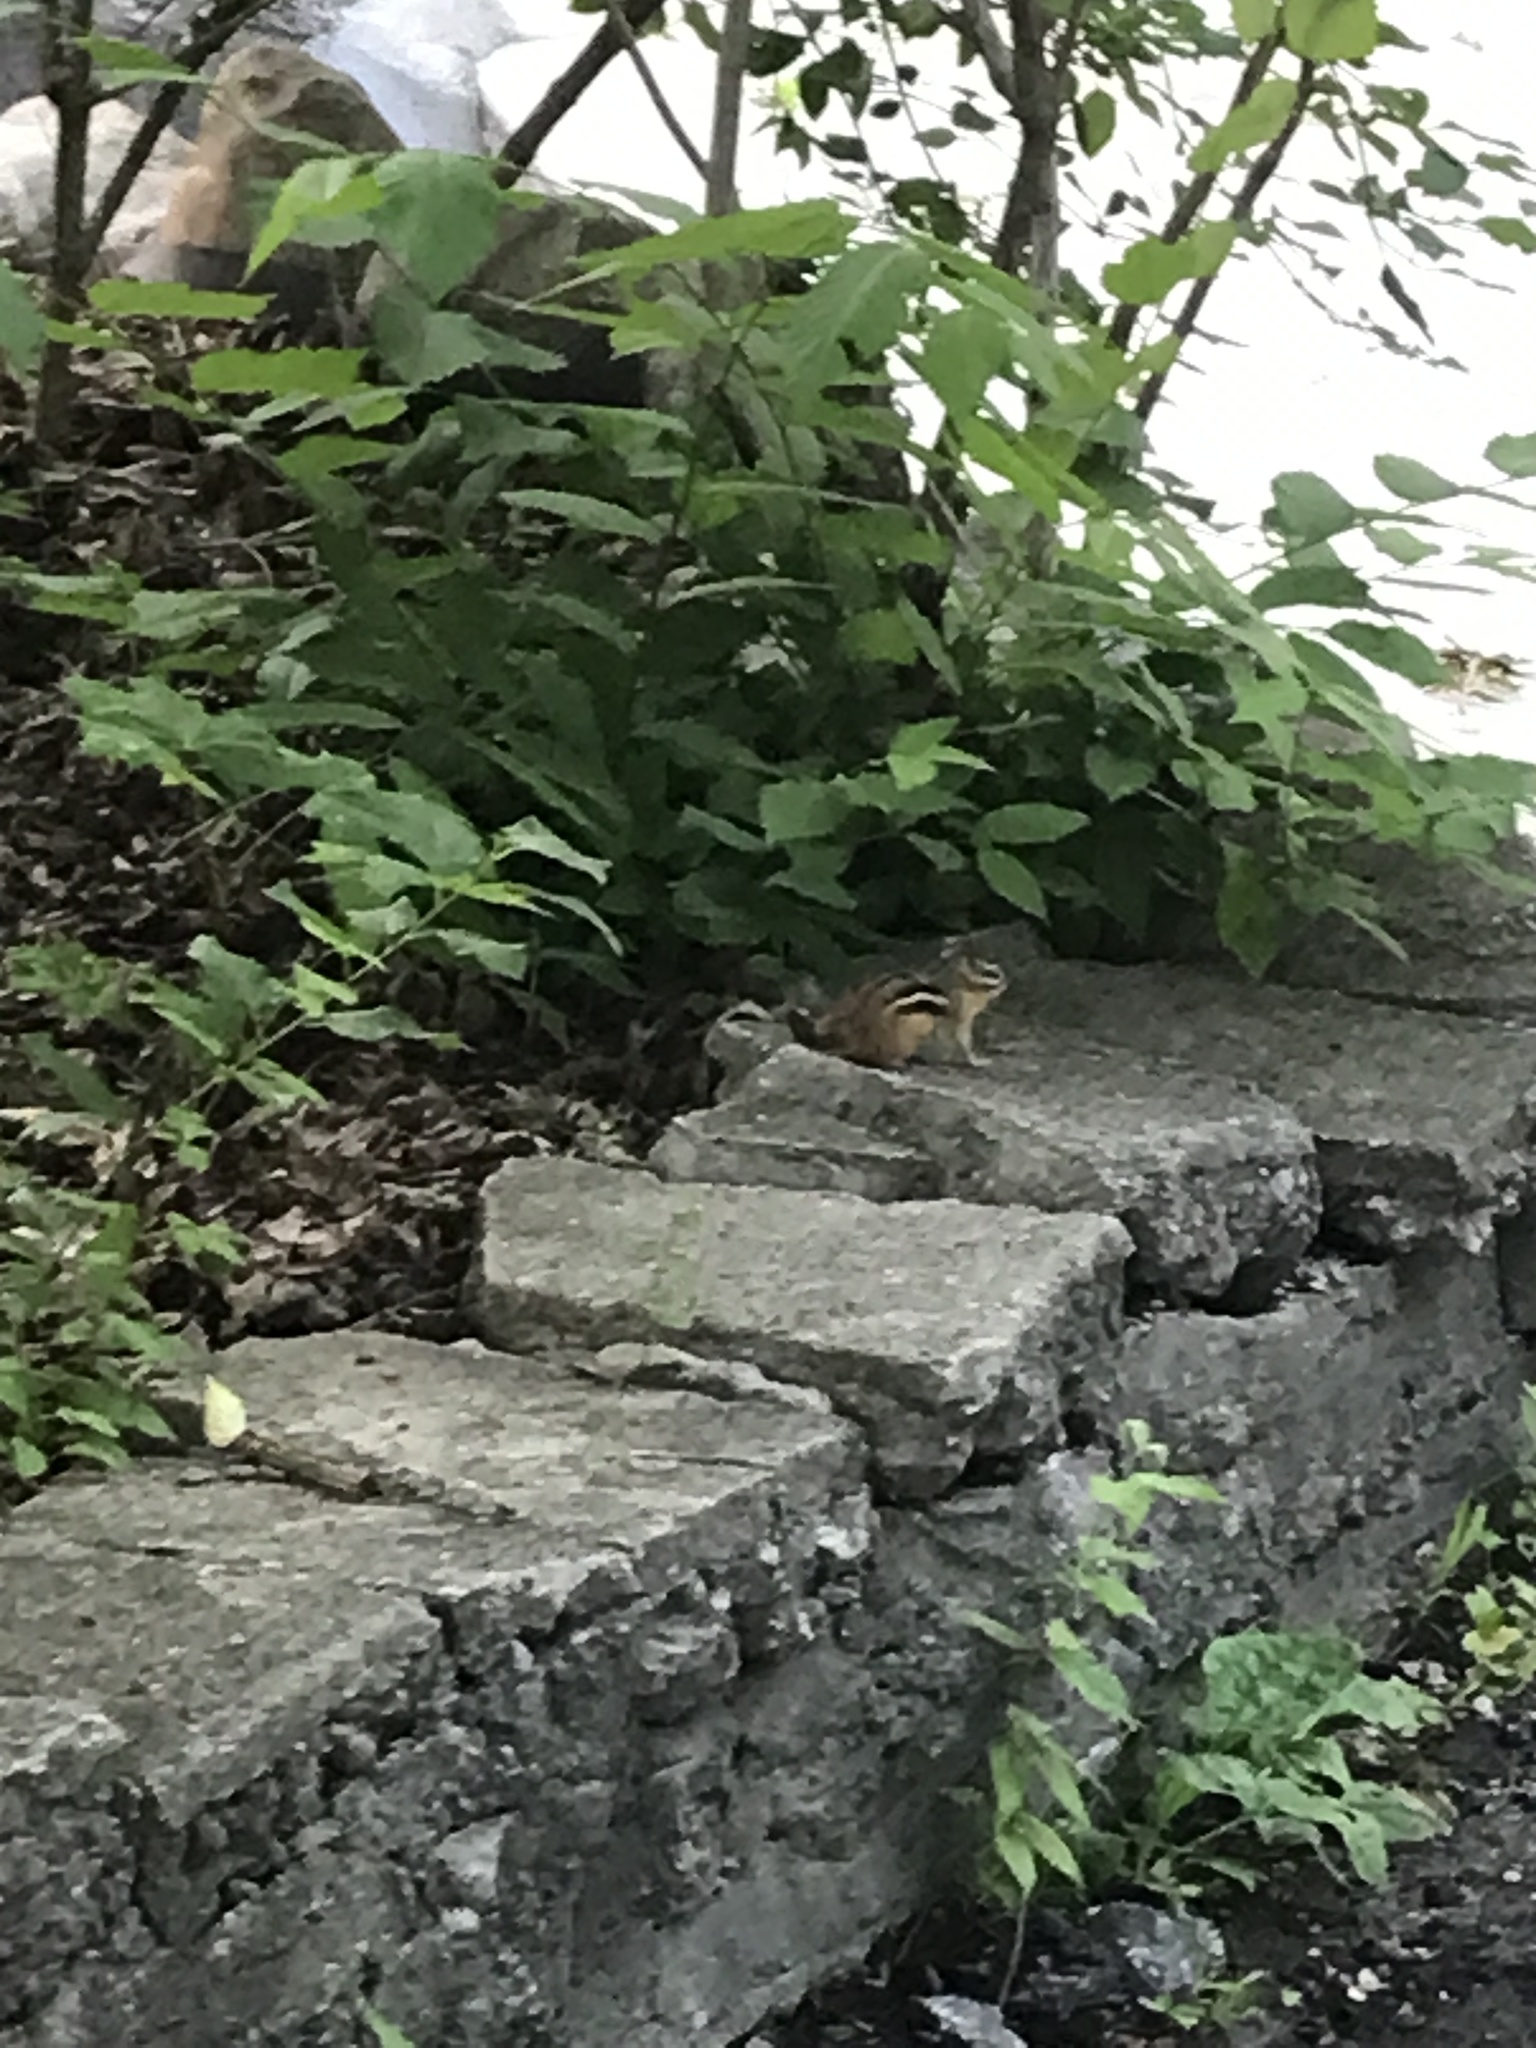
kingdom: Animalia
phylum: Chordata
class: Mammalia
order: Rodentia
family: Sciuridae
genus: Tamias
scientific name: Tamias striatus
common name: Eastern chipmunk
